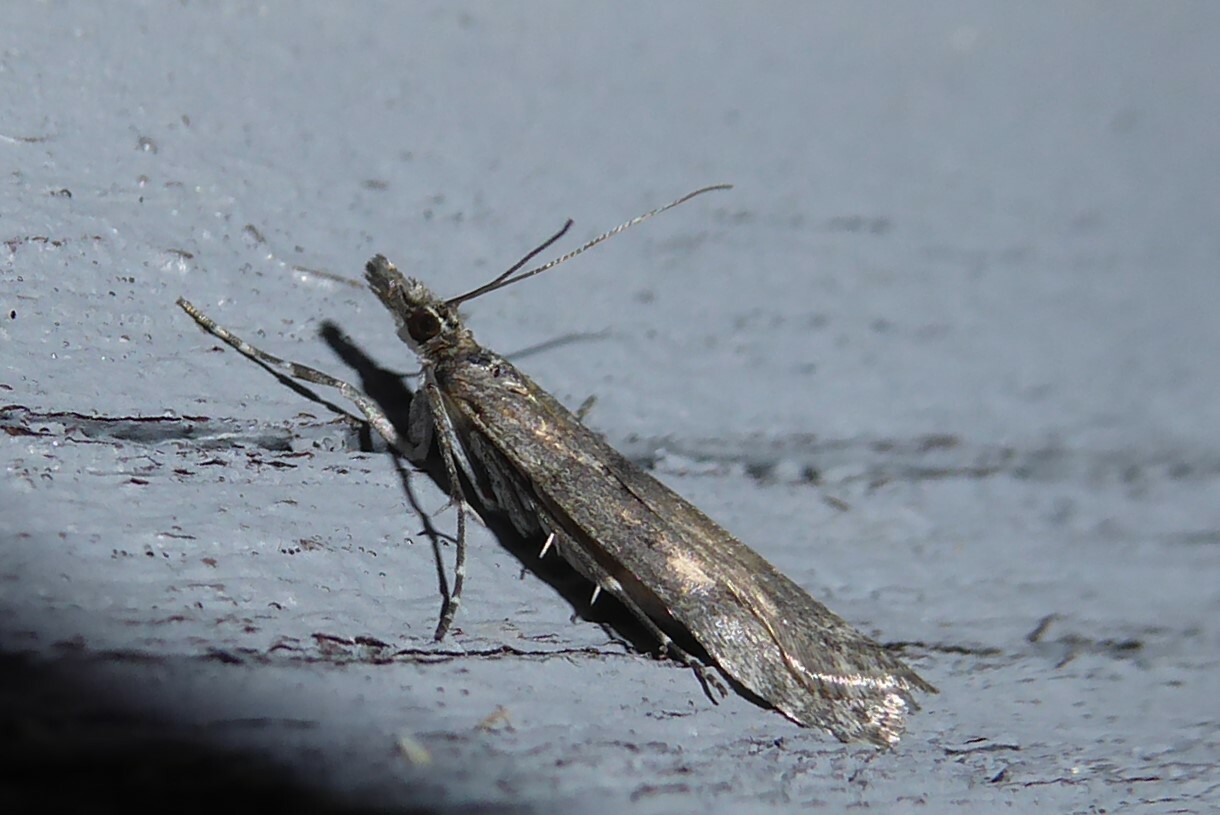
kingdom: Animalia
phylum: Arthropoda
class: Insecta
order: Lepidoptera
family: Crambidae
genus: Eudonia
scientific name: Eudonia leptalea
